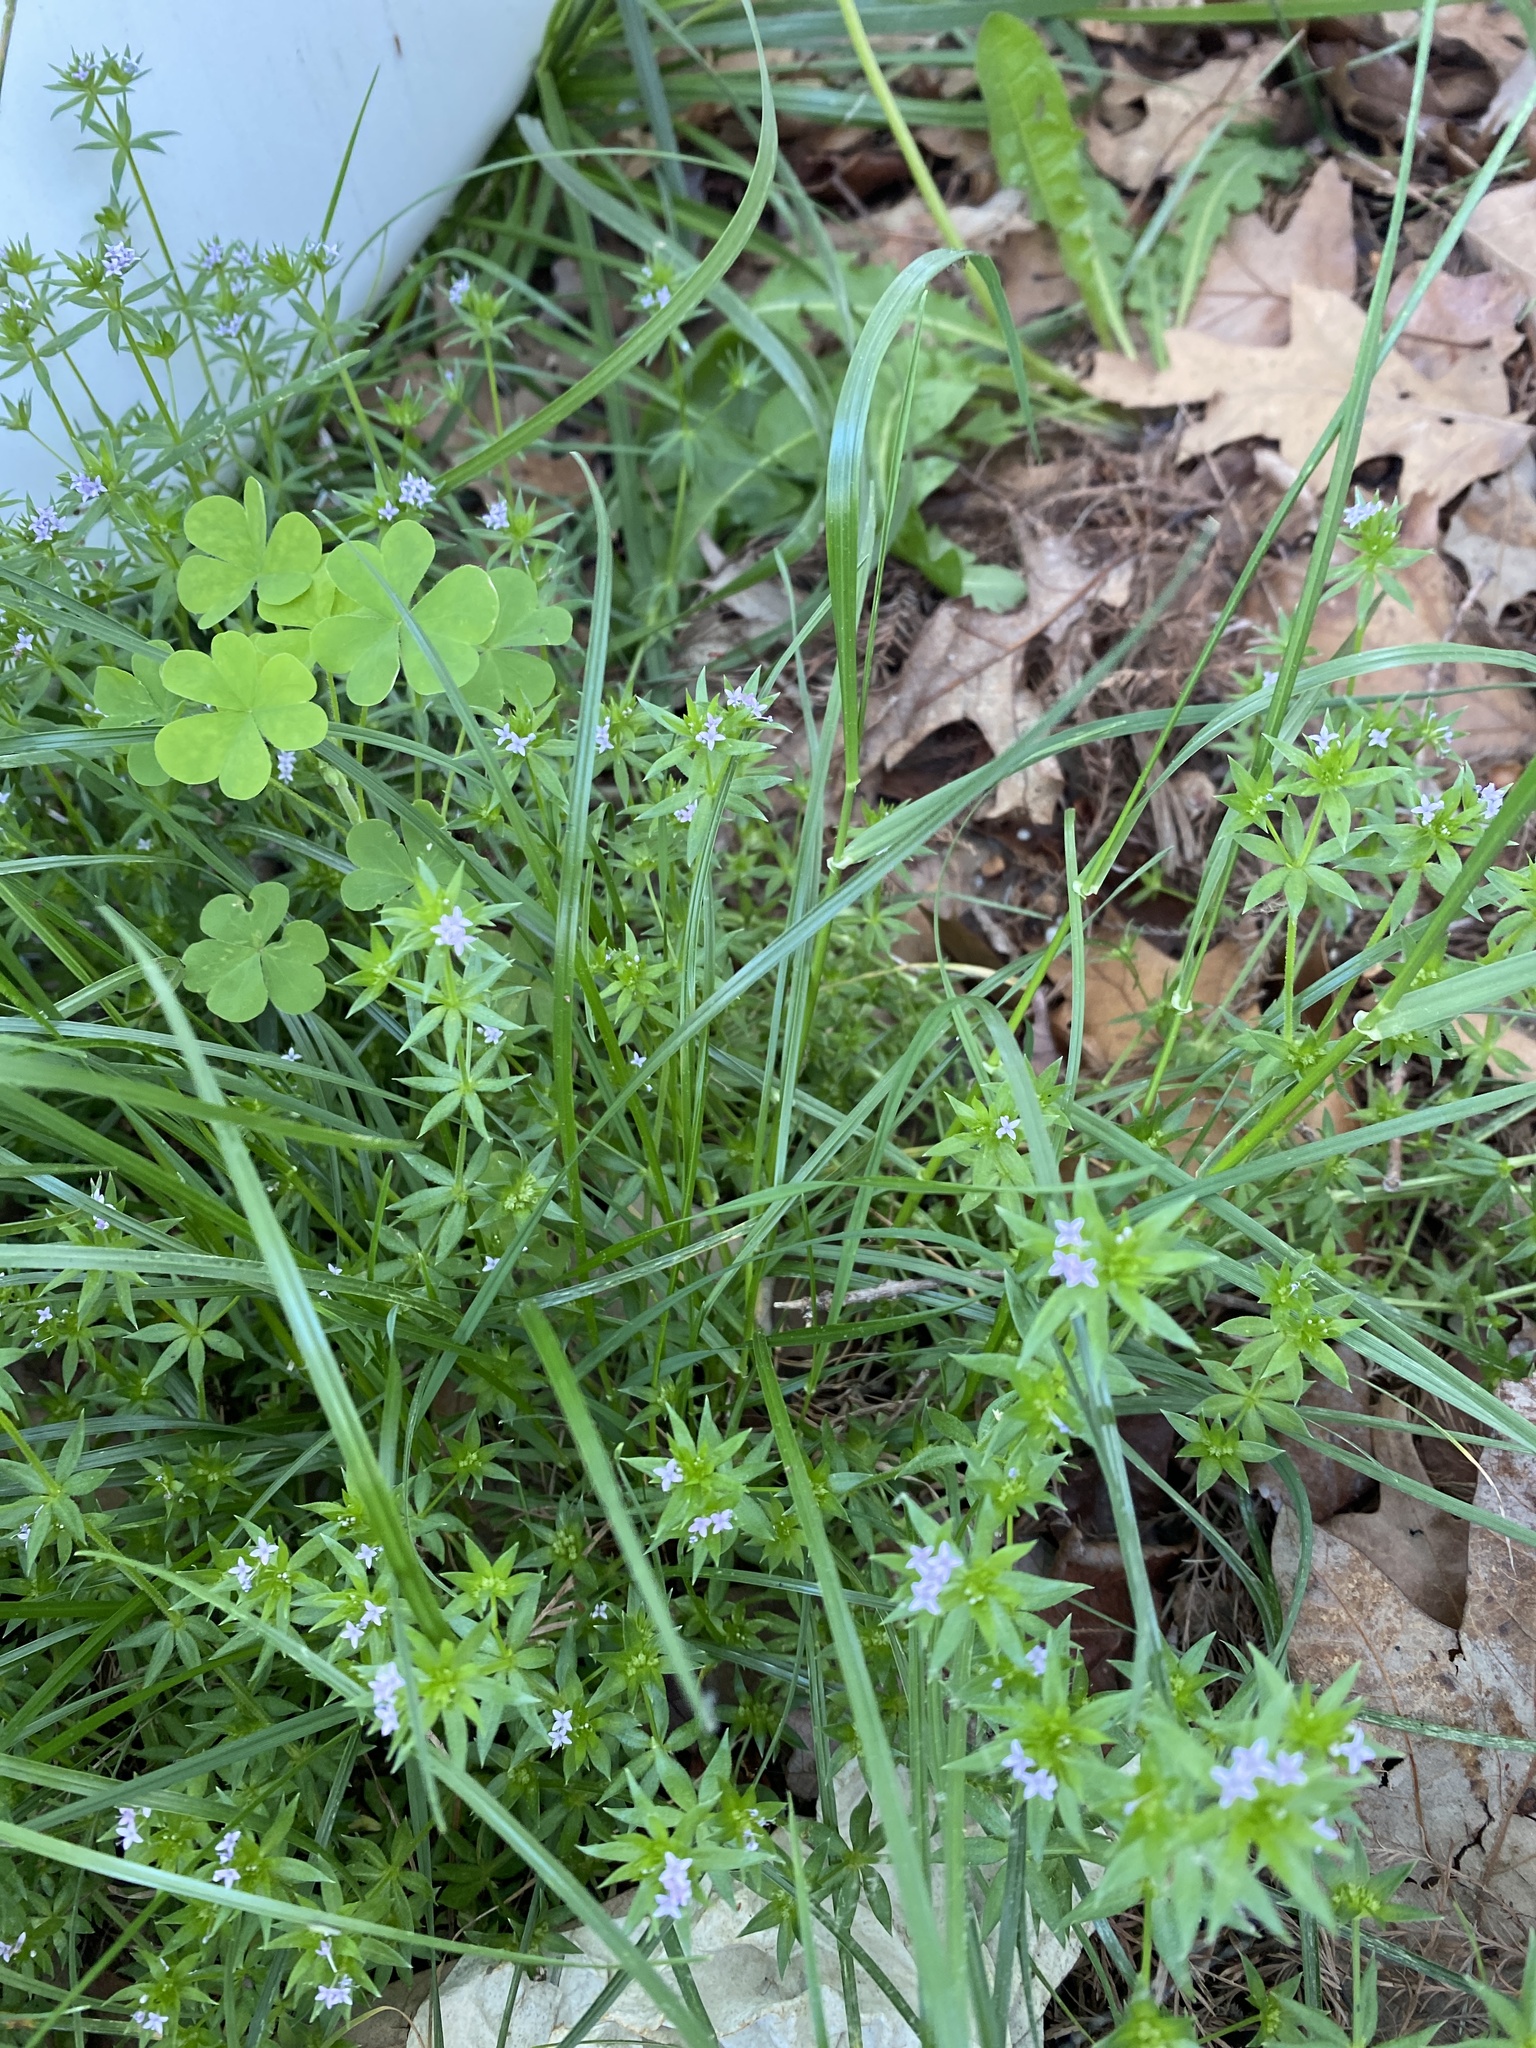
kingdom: Plantae
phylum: Tracheophyta
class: Magnoliopsida
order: Gentianales
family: Rubiaceae
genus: Sherardia
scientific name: Sherardia arvensis
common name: Field madder
